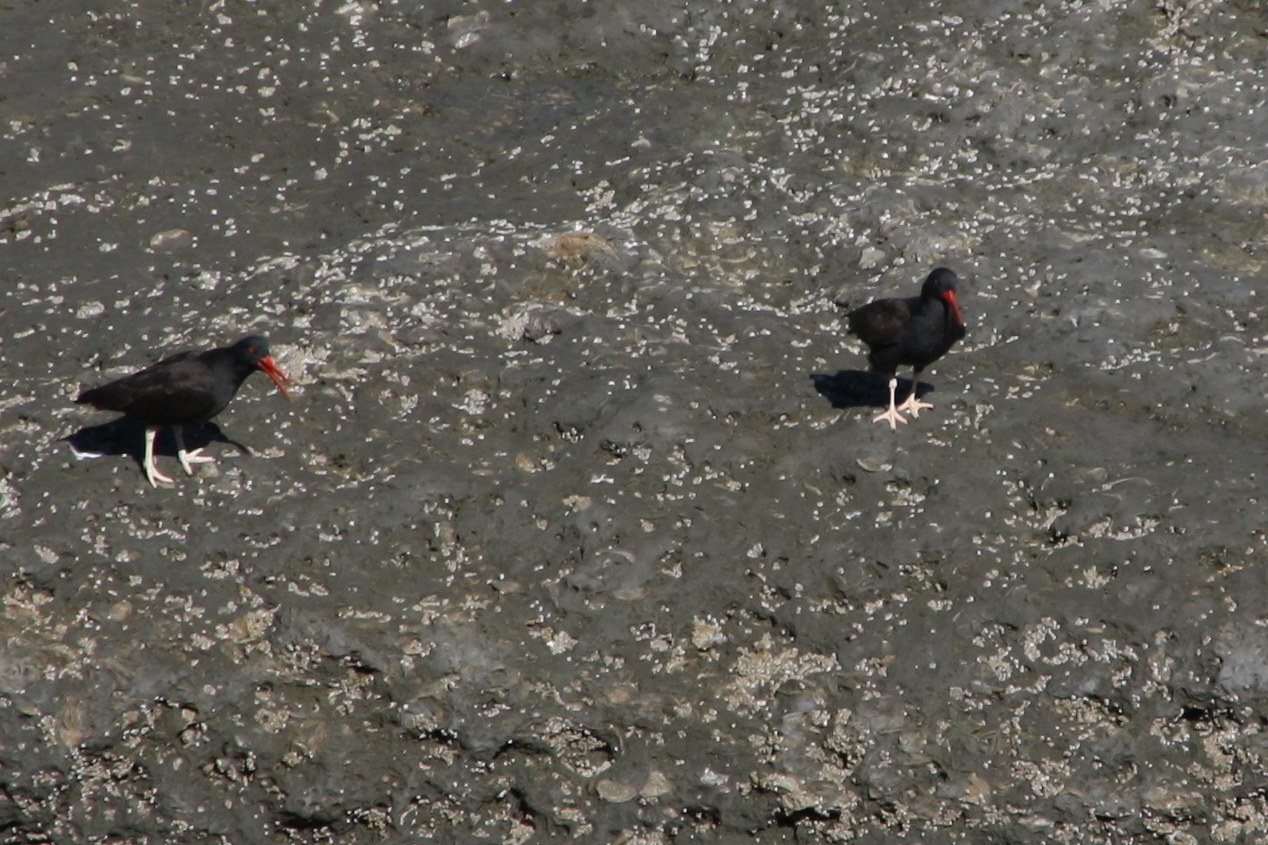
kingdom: Animalia
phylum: Chordata
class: Aves
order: Charadriiformes
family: Haematopodidae
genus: Haematopus
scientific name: Haematopus ater
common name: Blackish oystercatcher
